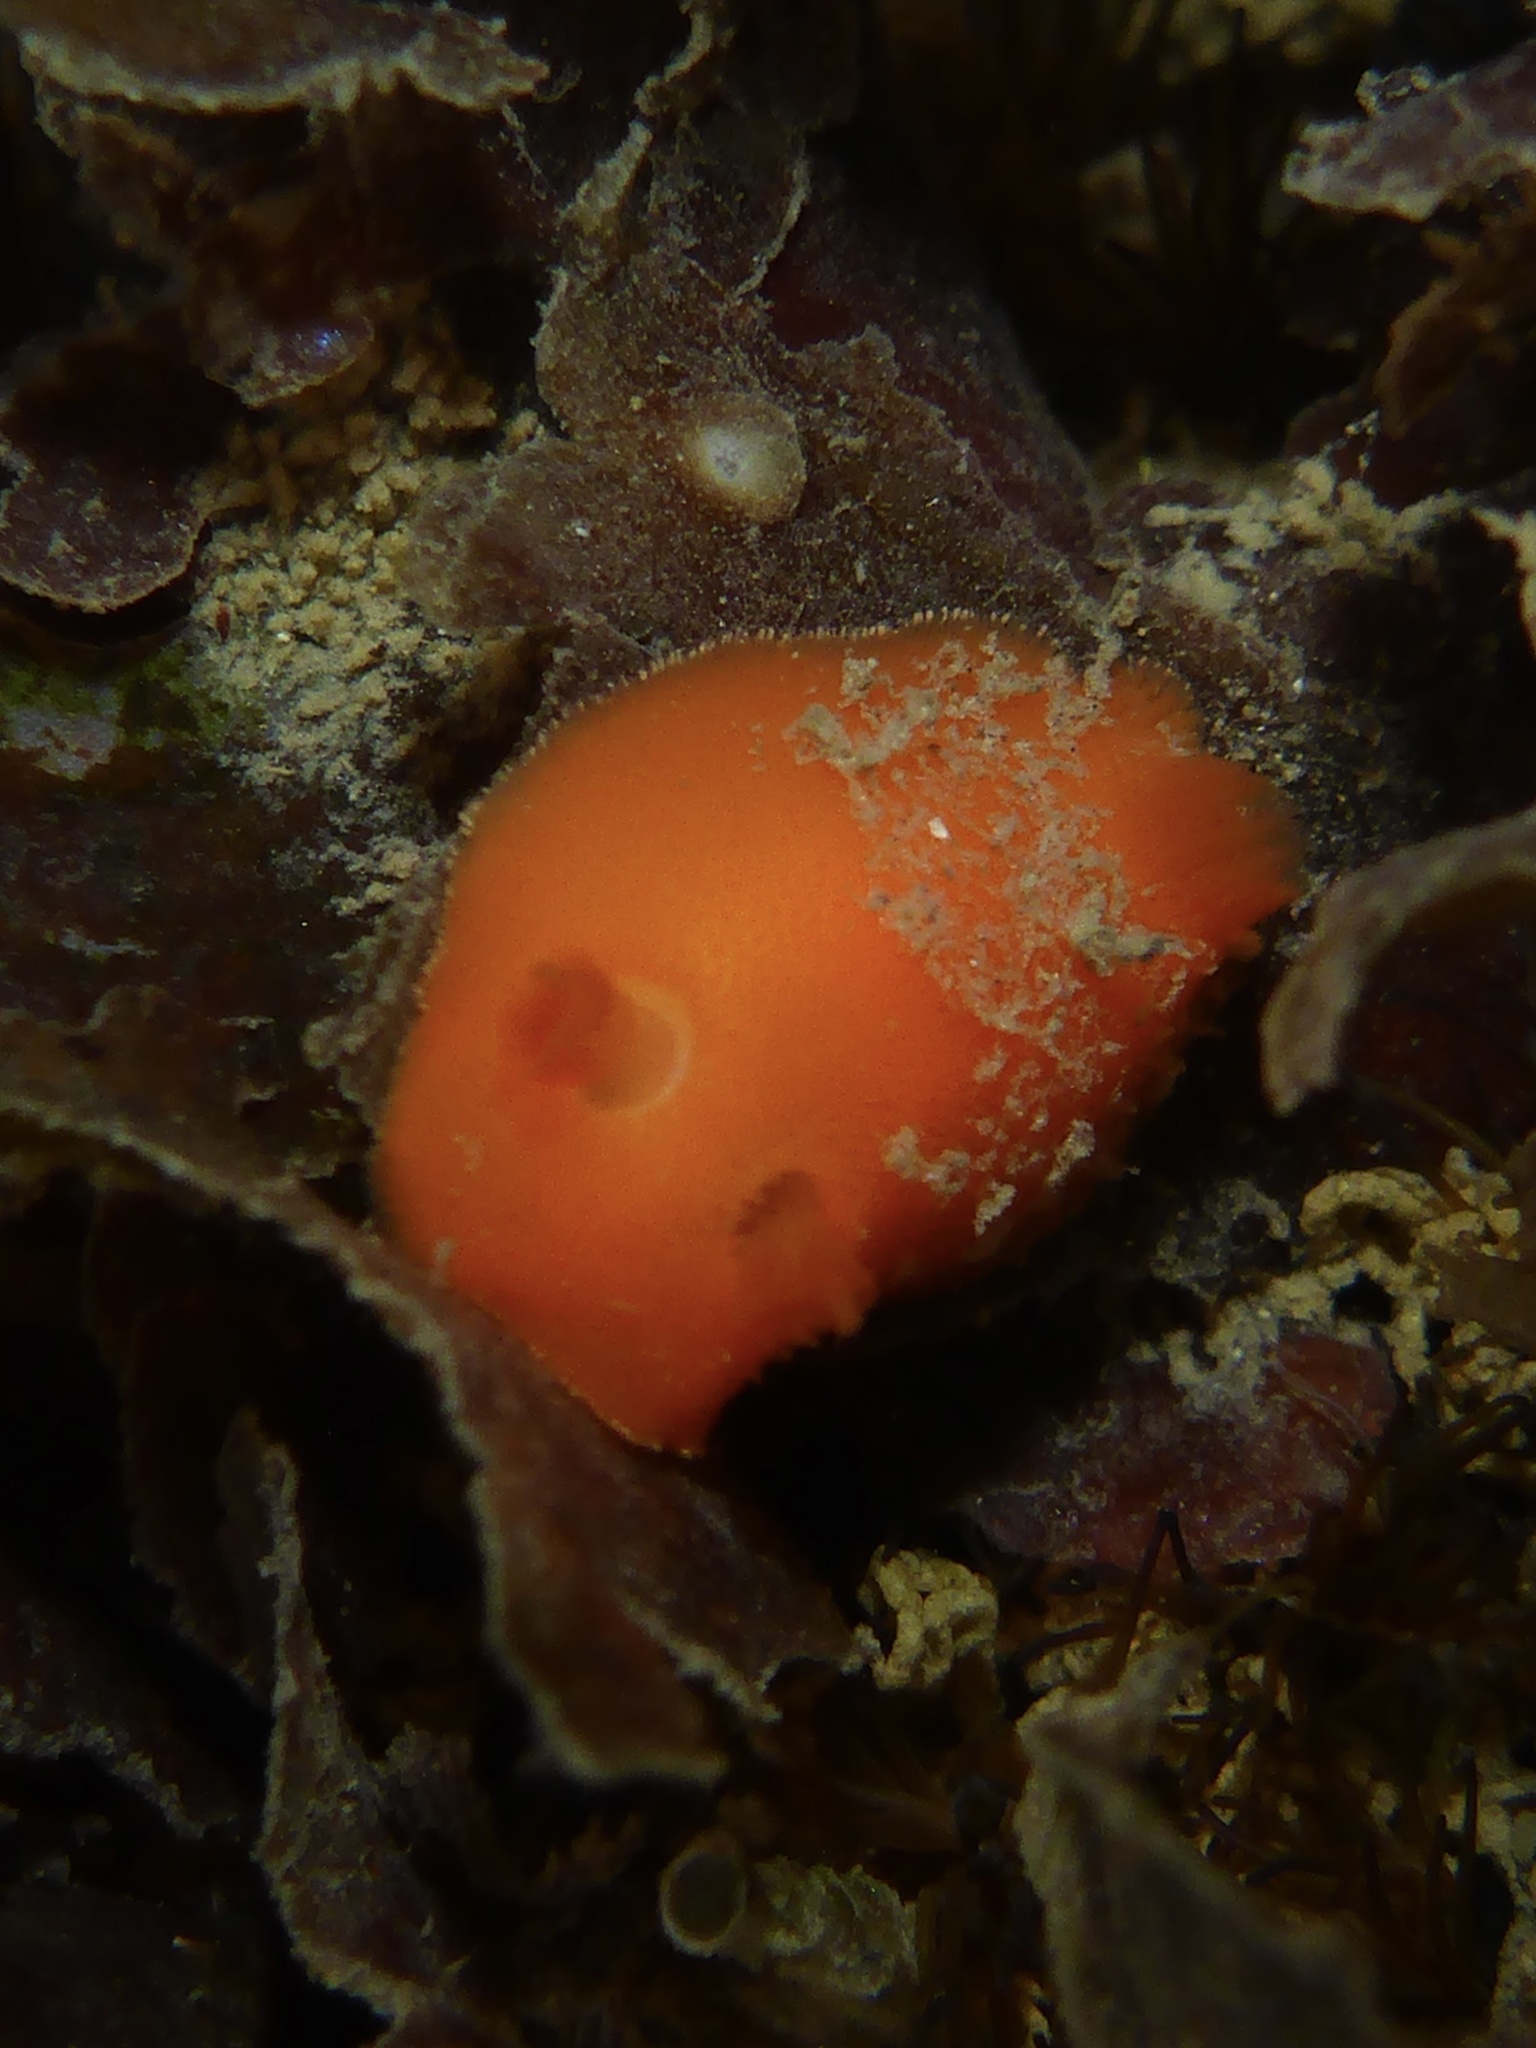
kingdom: Animalia
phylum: Mollusca
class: Gastropoda
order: Nudibranchia
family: Discodorididae
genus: Rostanga
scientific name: Rostanga pulchra
